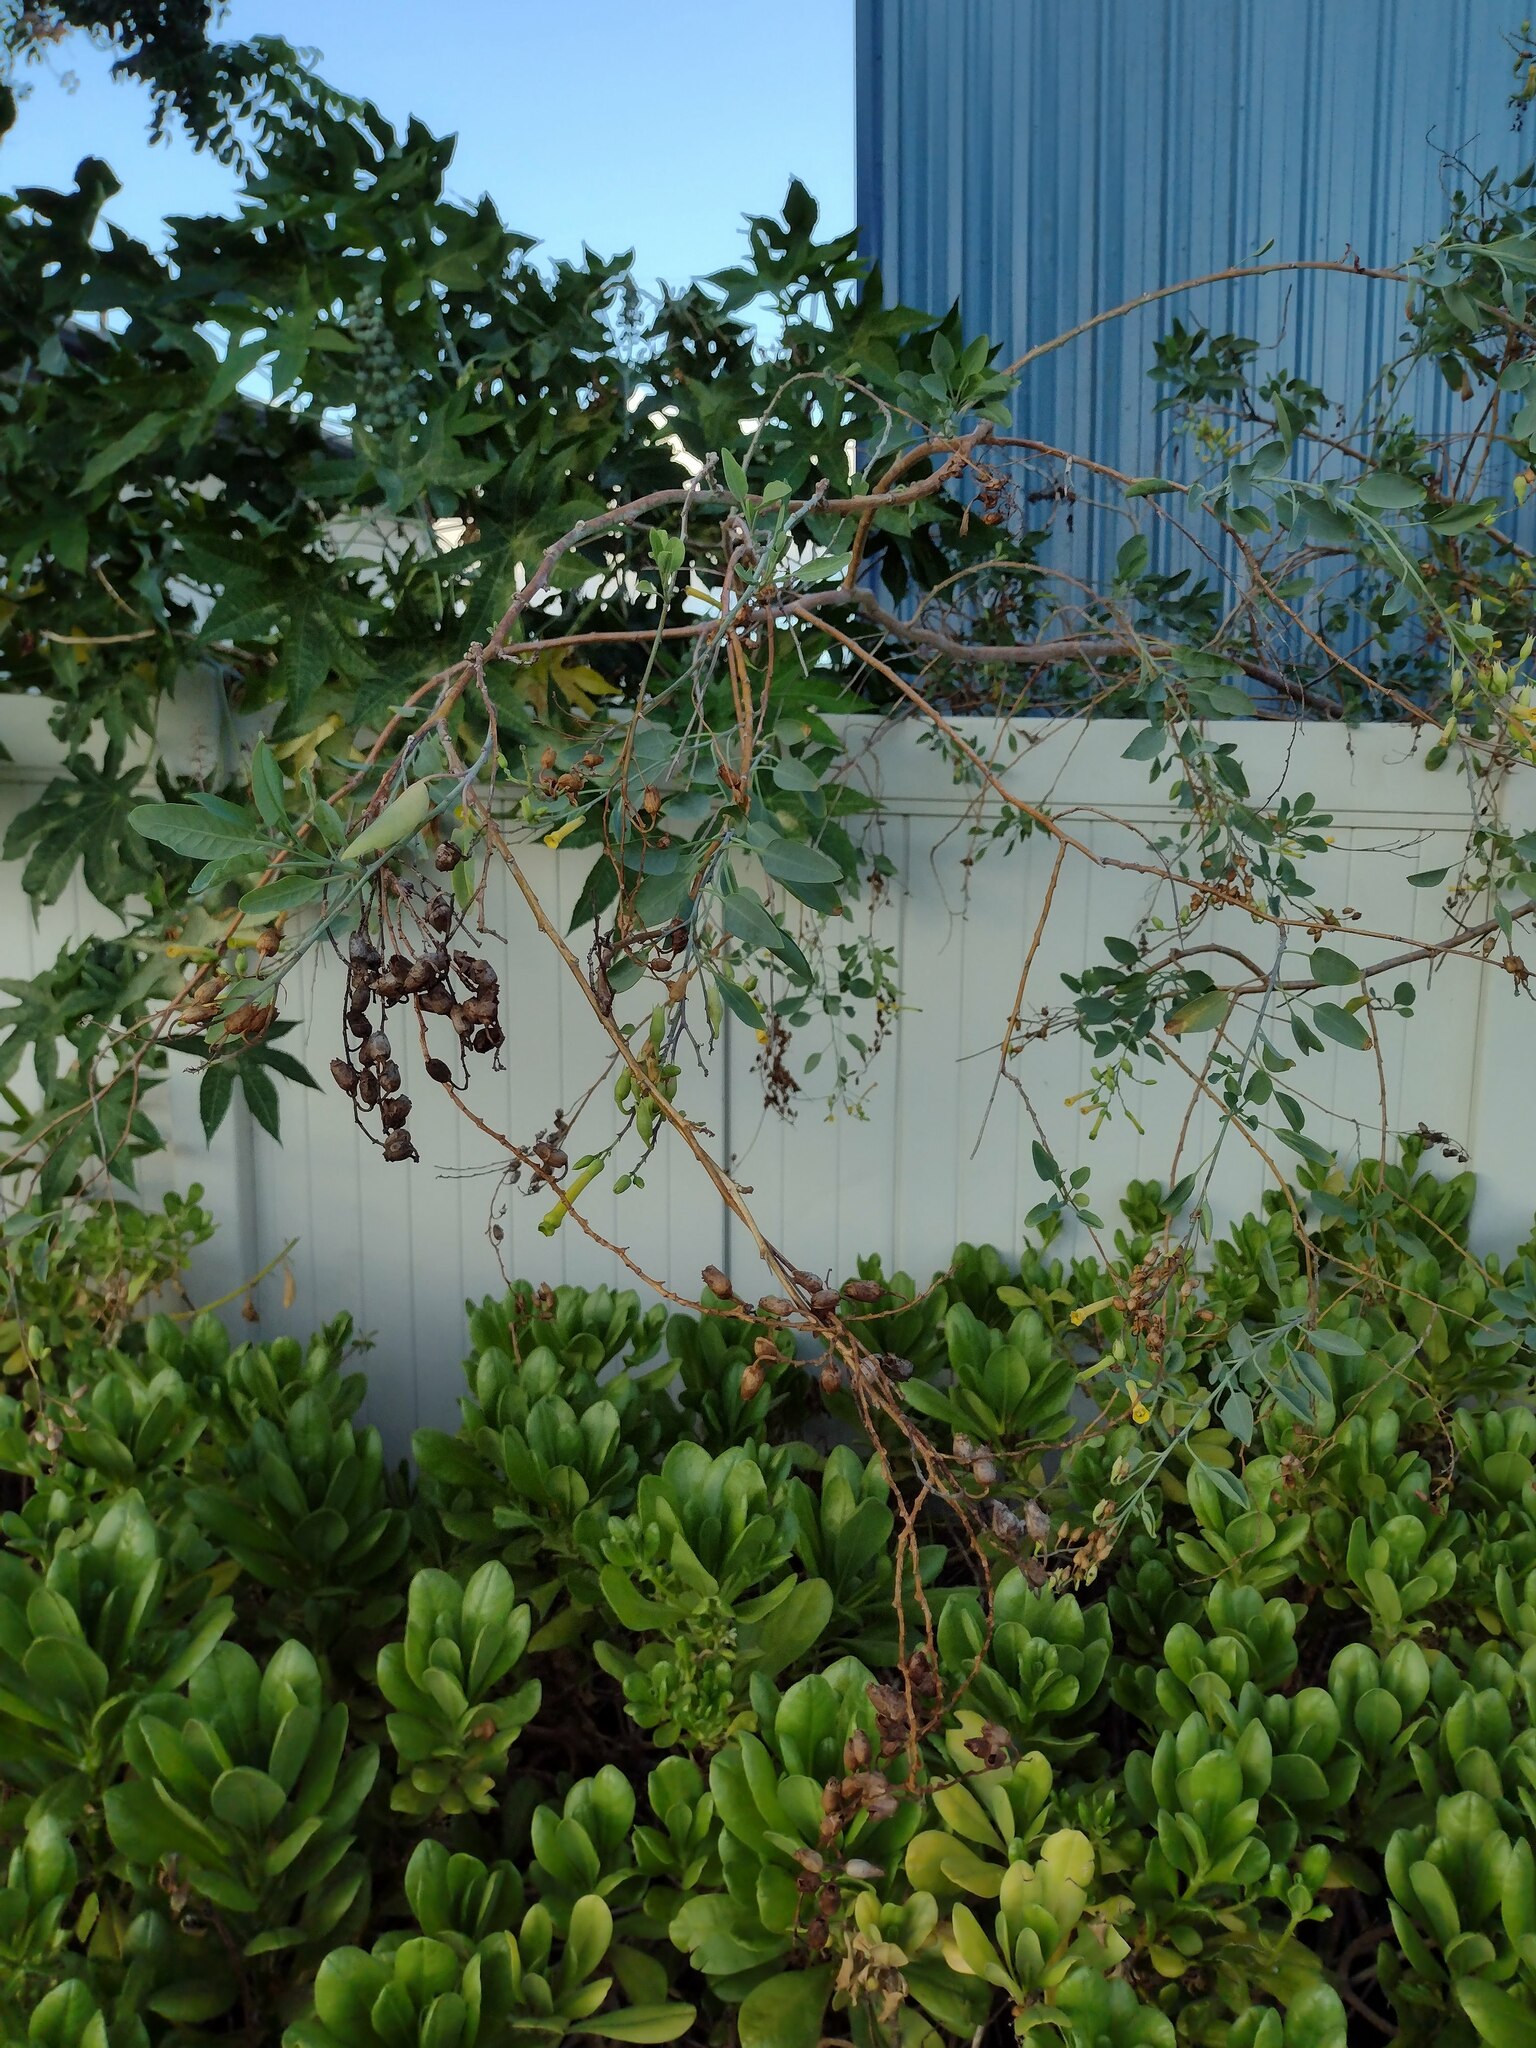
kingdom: Plantae
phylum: Tracheophyta
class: Magnoliopsida
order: Solanales
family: Solanaceae
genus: Nicotiana
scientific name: Nicotiana glauca
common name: Tree tobacco
